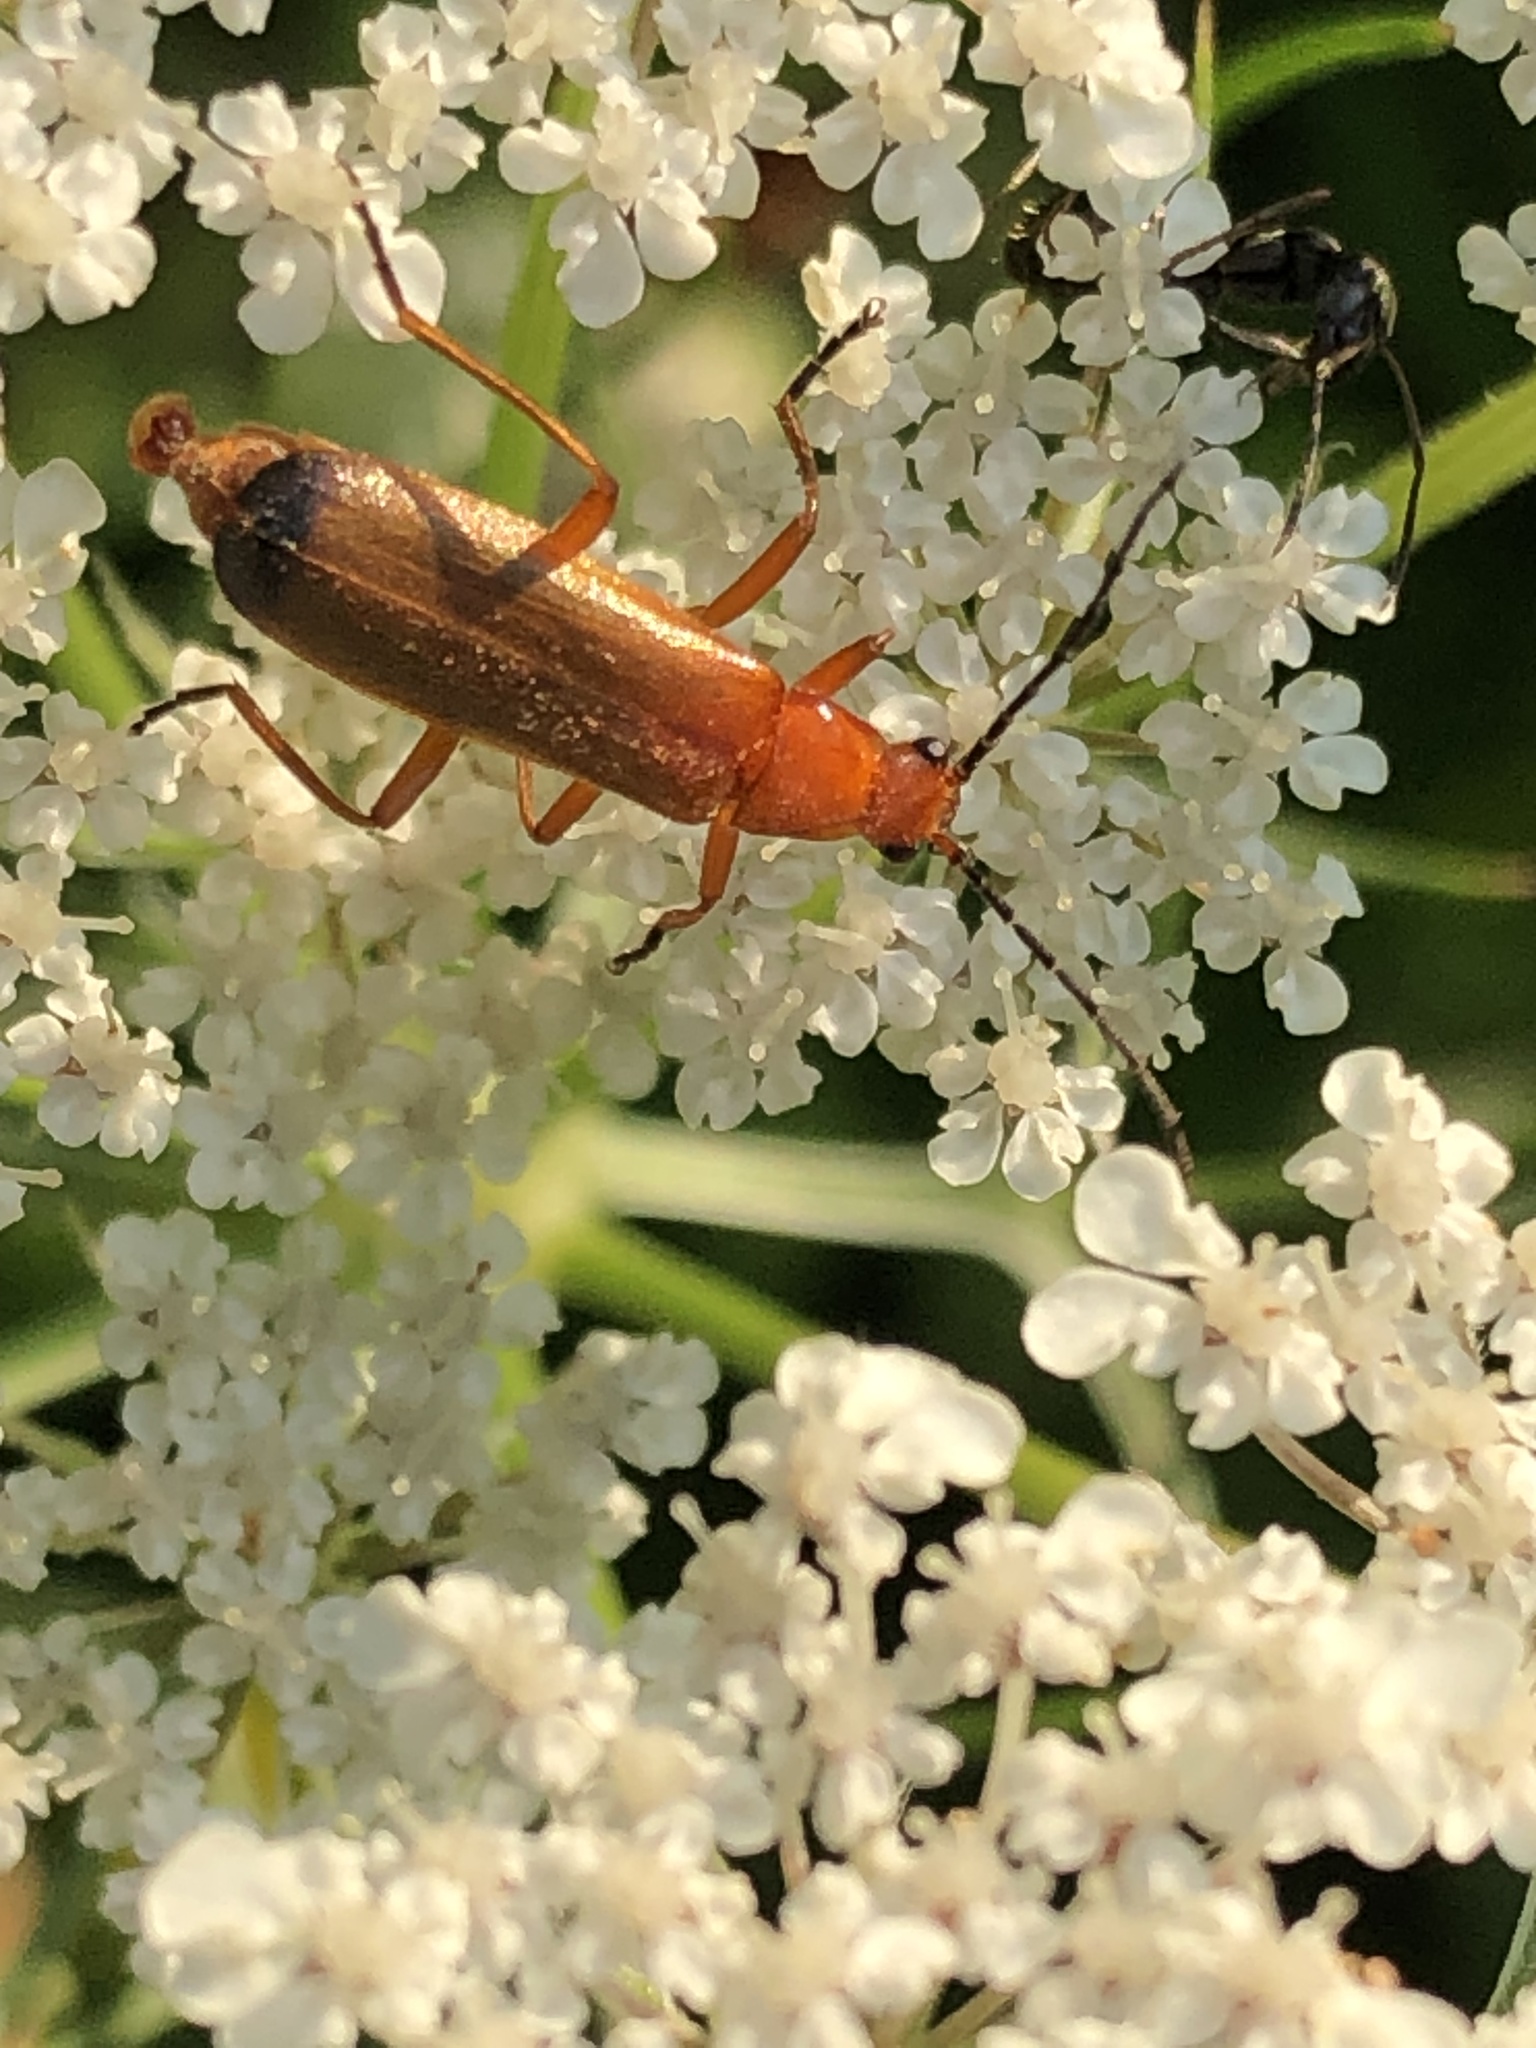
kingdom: Animalia
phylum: Arthropoda
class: Insecta
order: Coleoptera
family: Cantharidae
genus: Rhagonycha
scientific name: Rhagonycha fulva
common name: Common red soldier beetle
